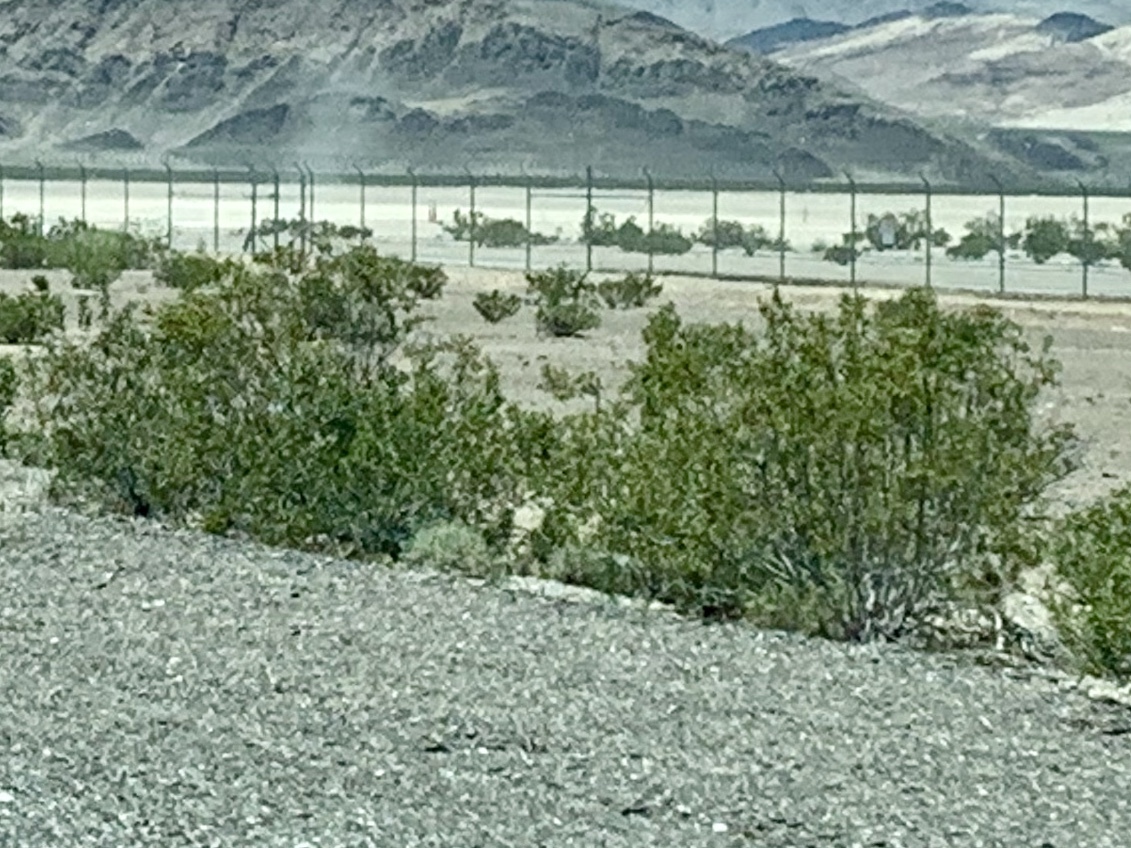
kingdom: Plantae
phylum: Tracheophyta
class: Magnoliopsida
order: Zygophyllales
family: Zygophyllaceae
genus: Larrea
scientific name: Larrea tridentata
